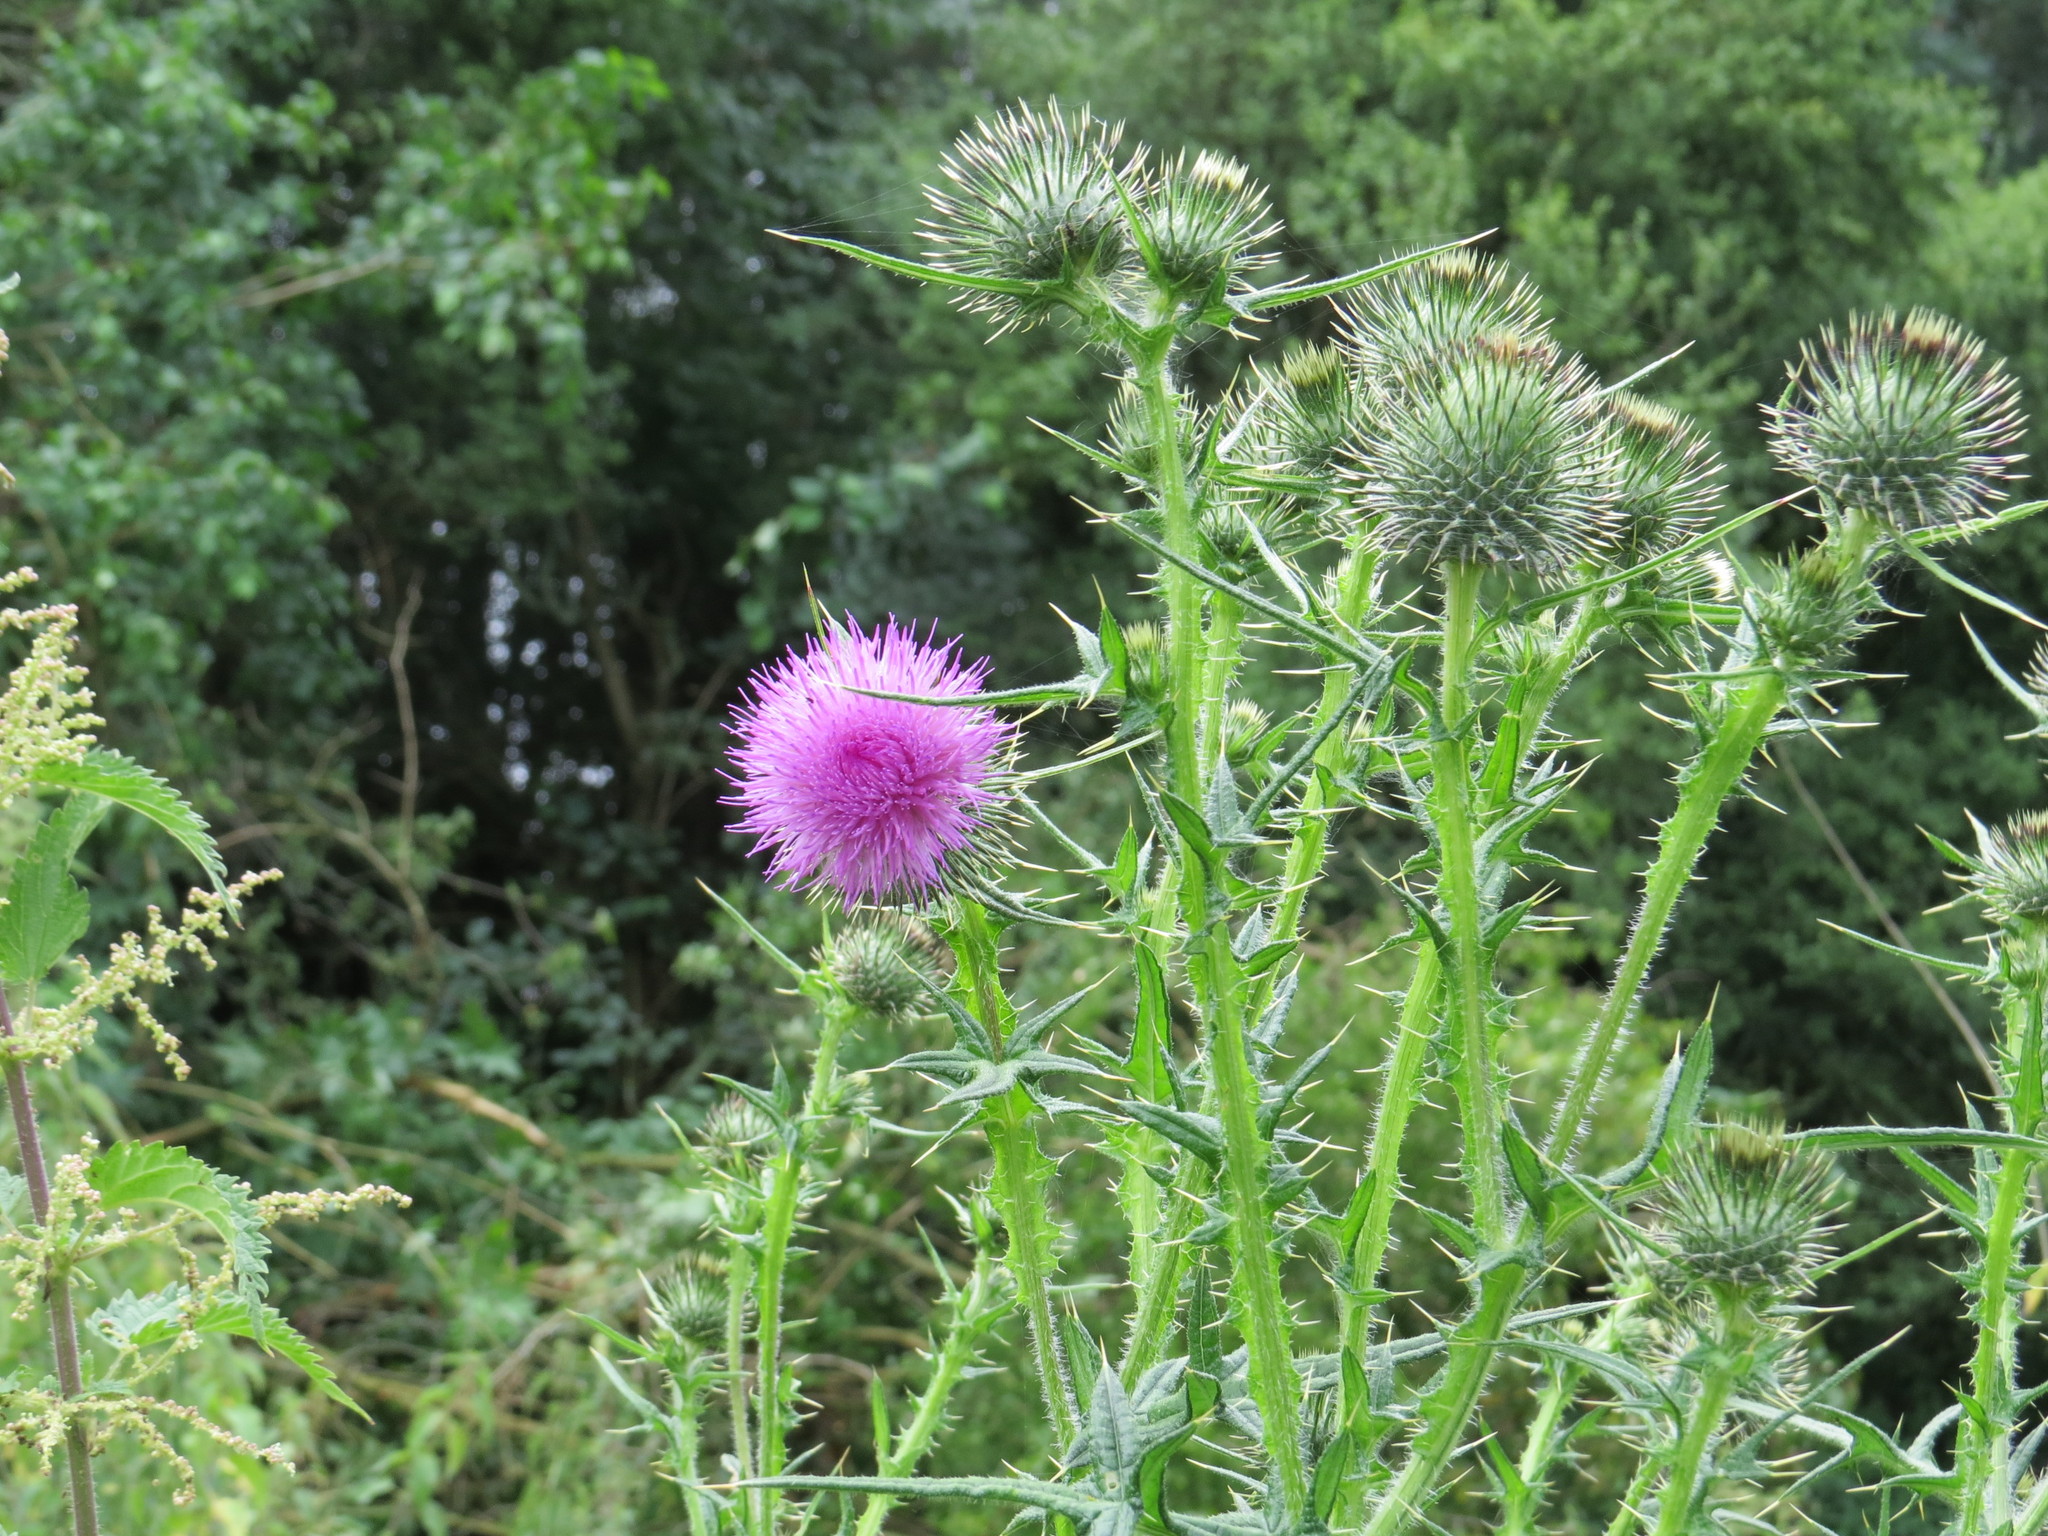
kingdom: Plantae
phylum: Tracheophyta
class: Magnoliopsida
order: Asterales
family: Asteraceae
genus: Cirsium
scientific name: Cirsium vulgare
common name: Bull thistle
